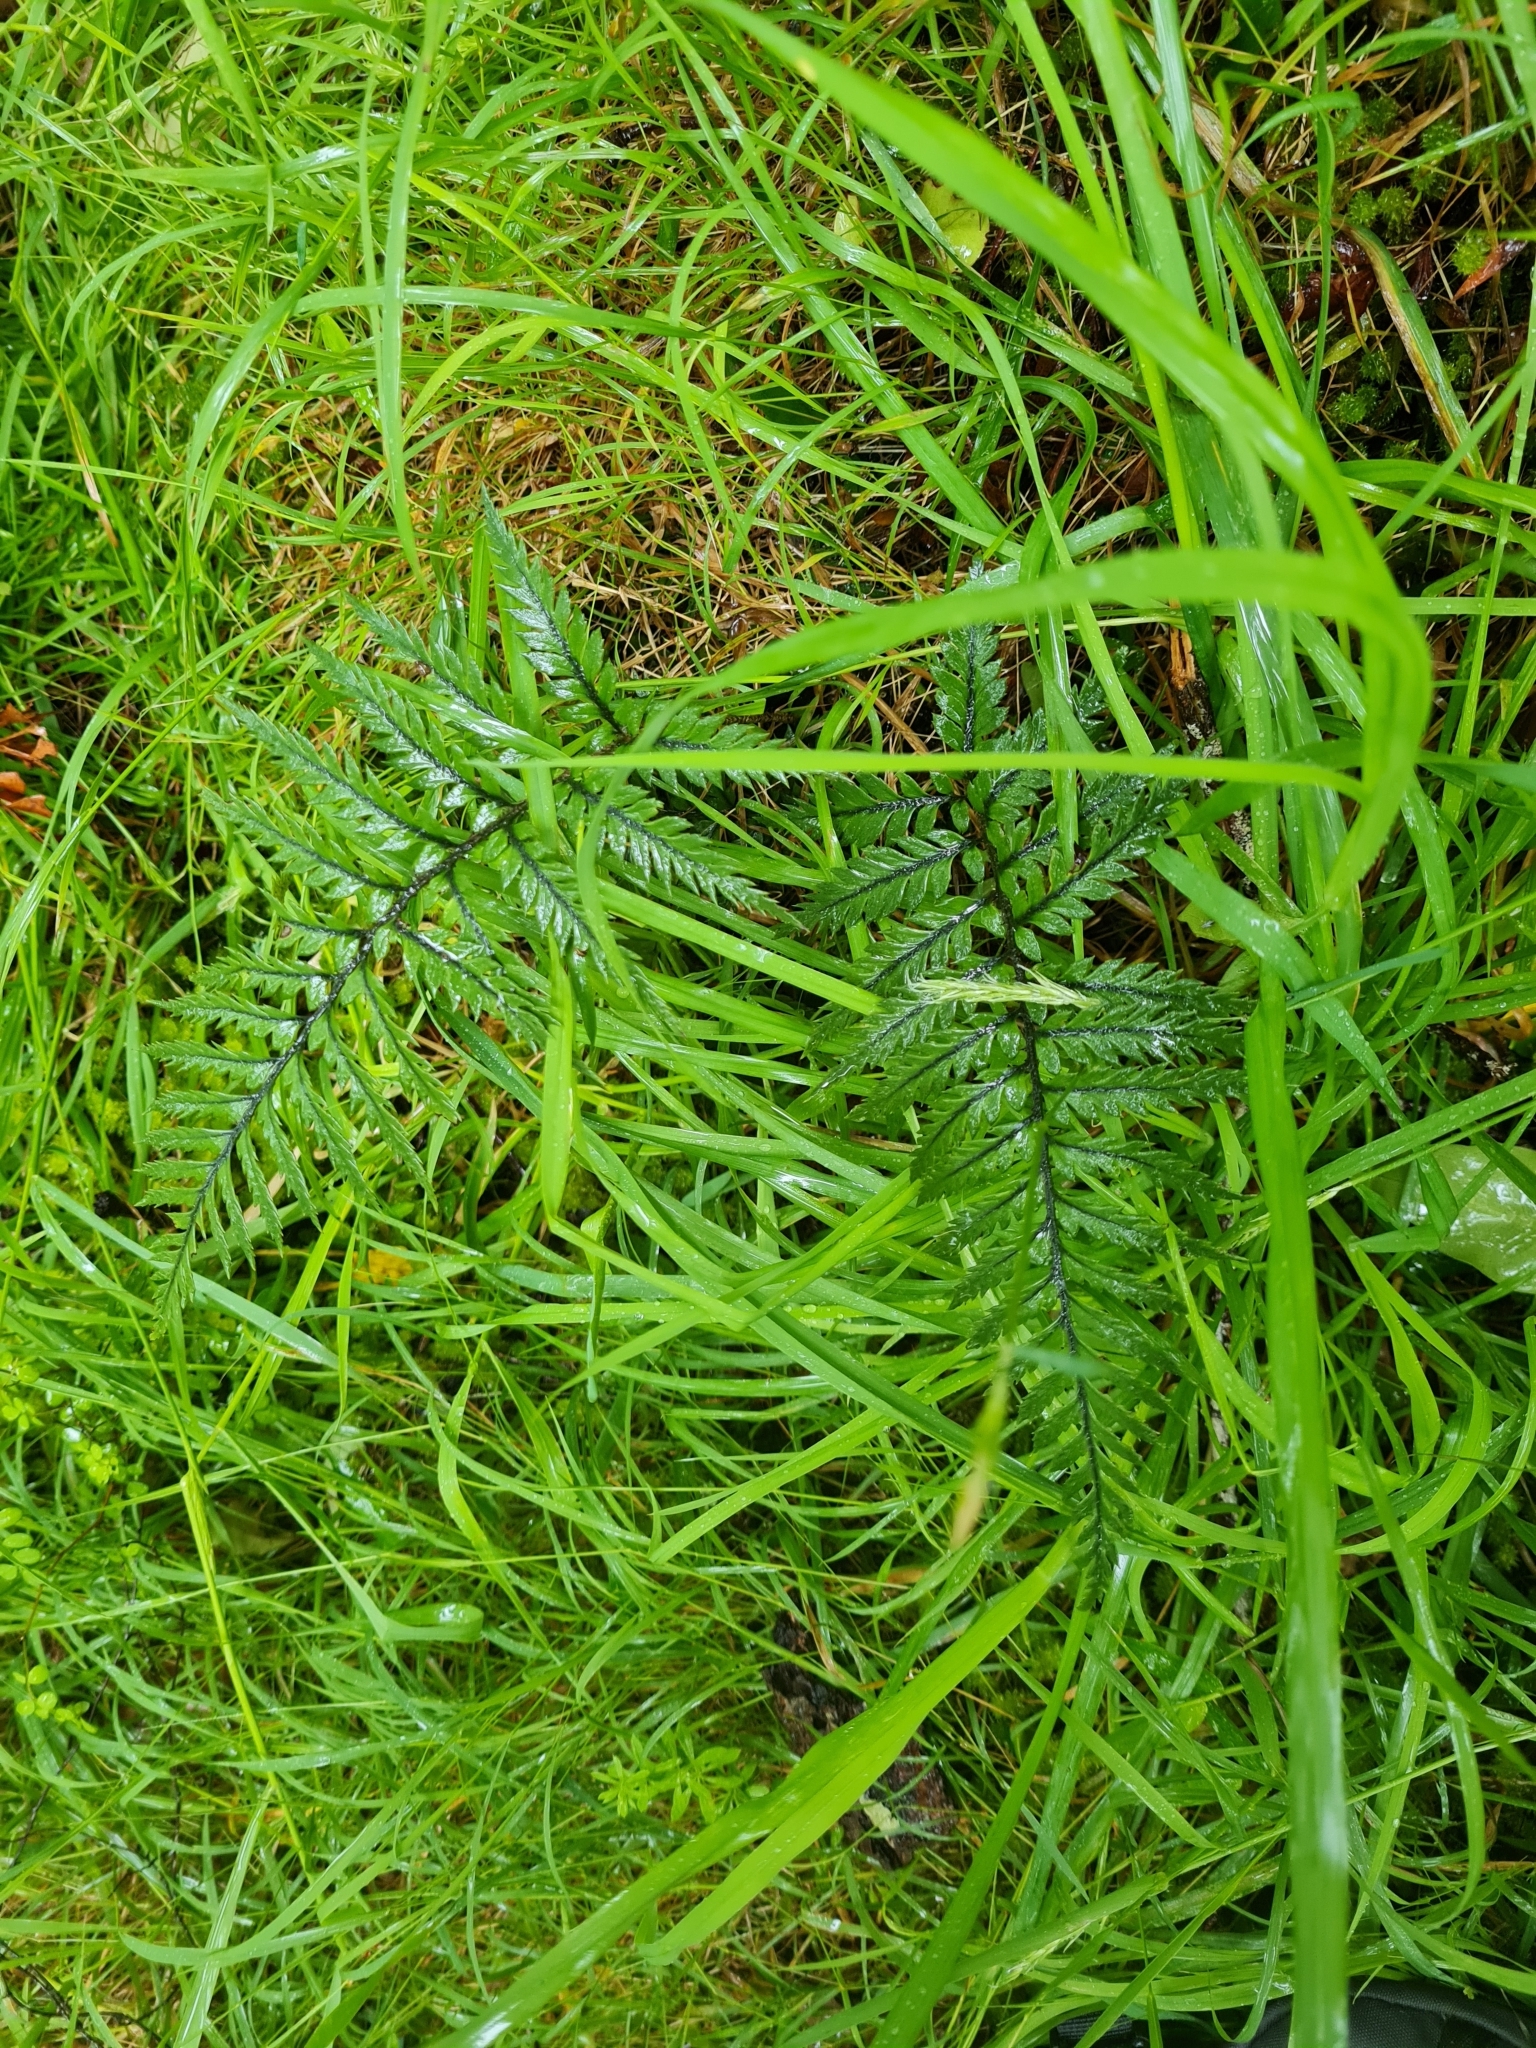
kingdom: Plantae
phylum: Tracheophyta
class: Polypodiopsida
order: Polypodiales
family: Dryopteridaceae
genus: Polystichum
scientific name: Polystichum neozelandicum
